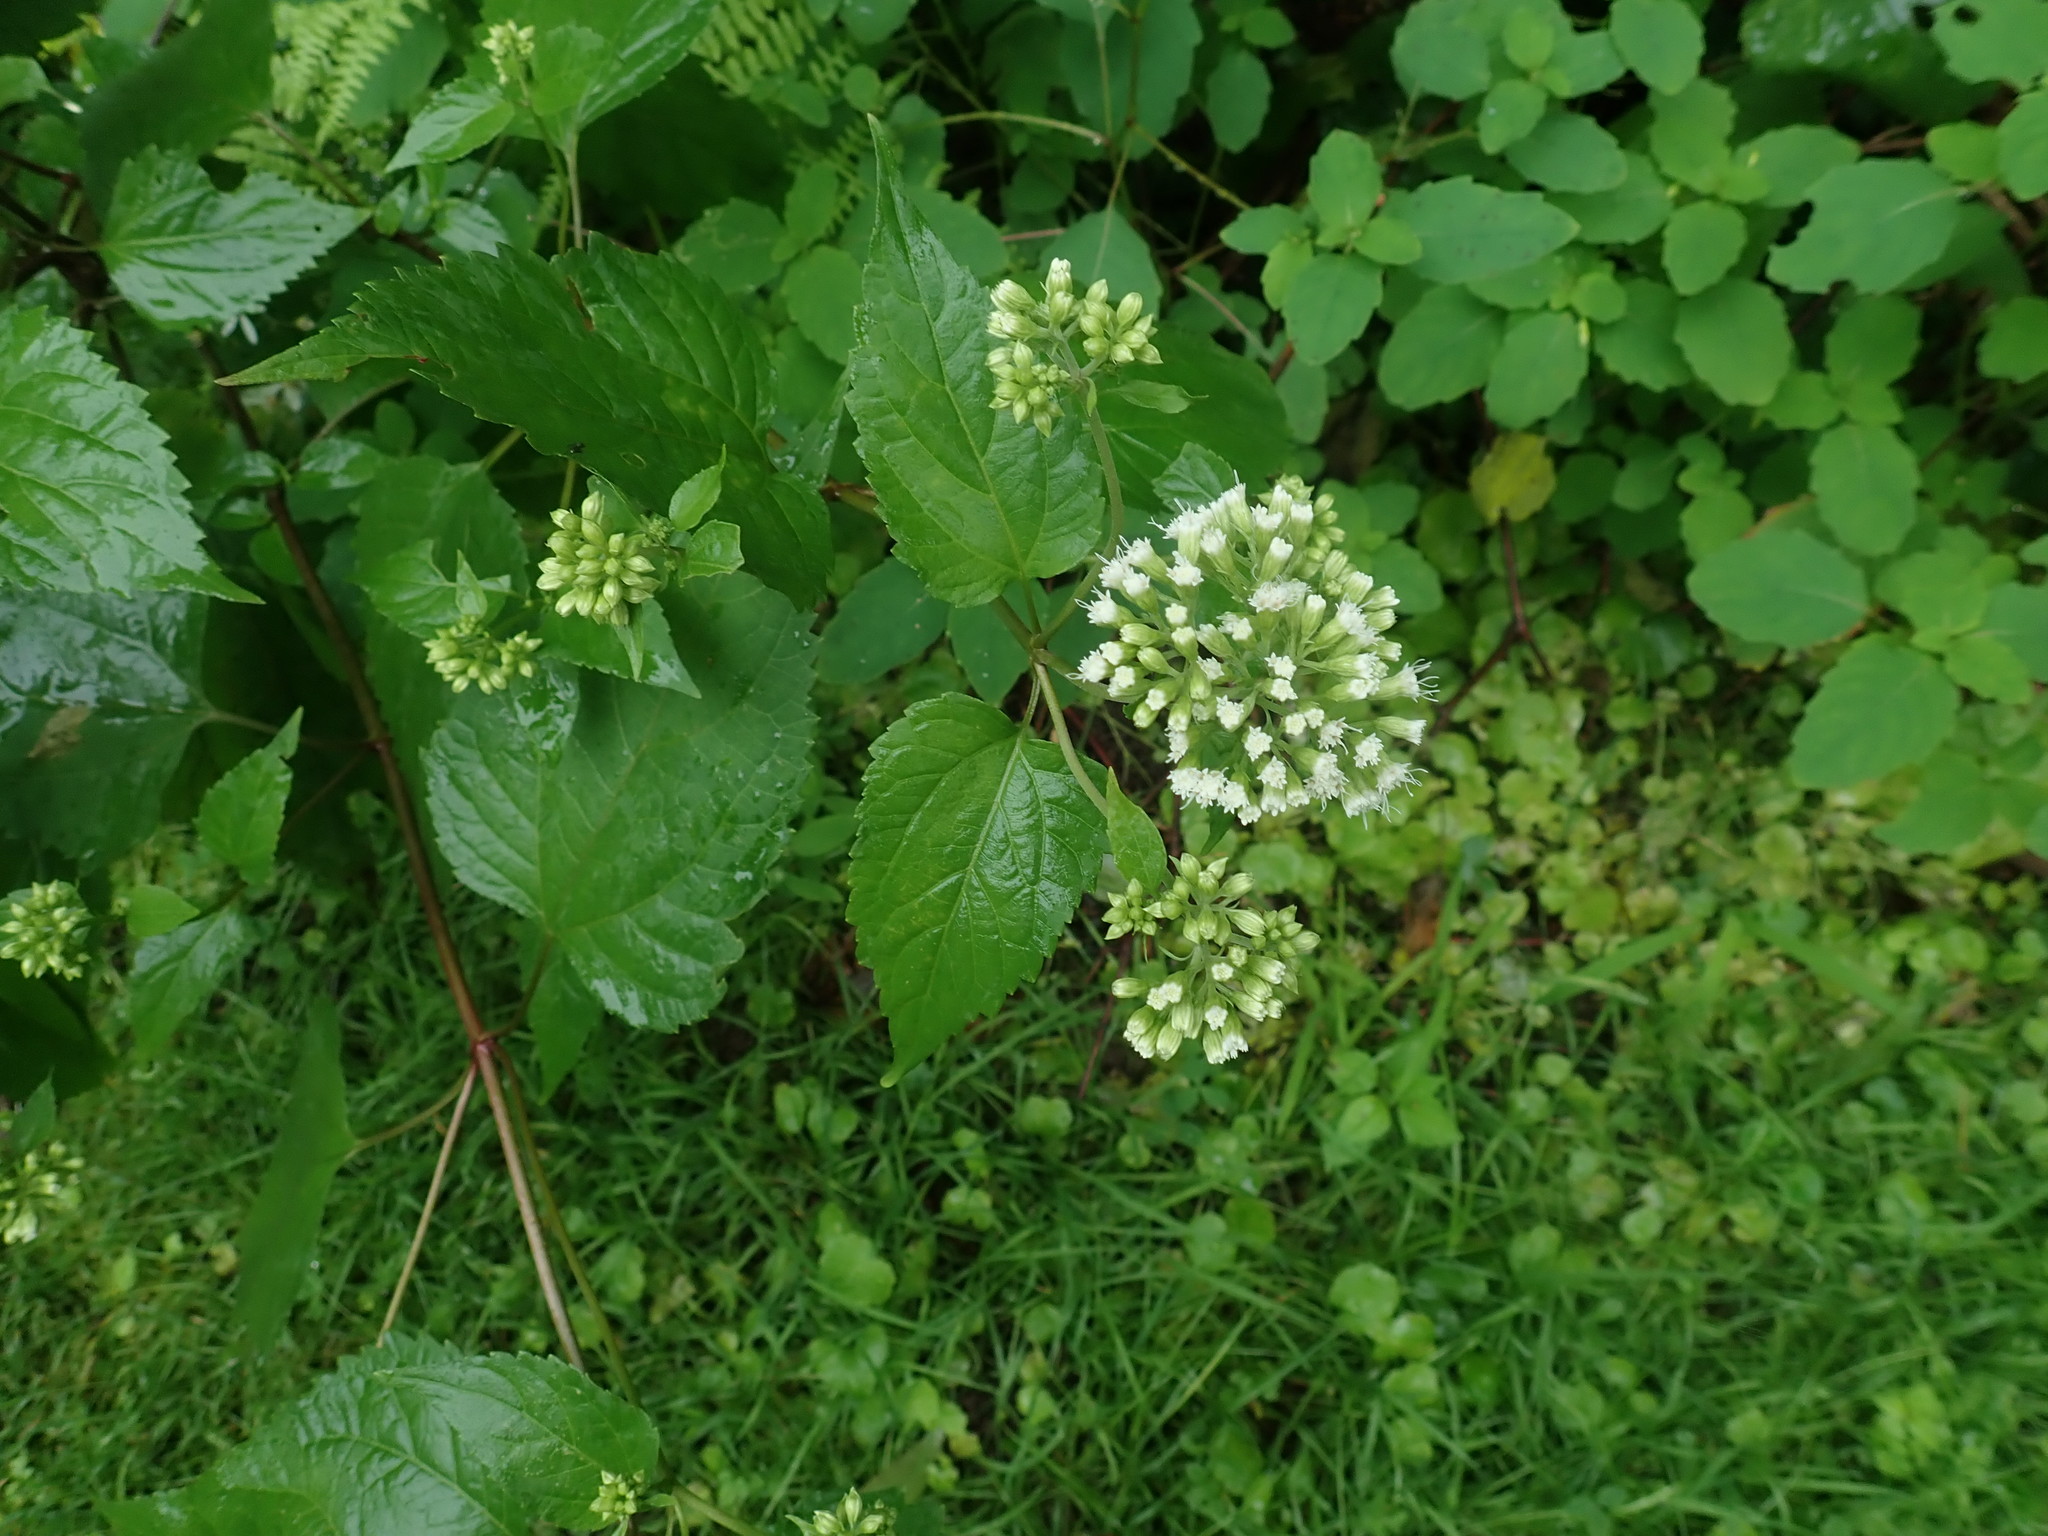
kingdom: Plantae
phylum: Tracheophyta
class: Magnoliopsida
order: Asterales
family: Asteraceae
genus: Ageratina
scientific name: Ageratina altissima
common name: White snakeroot
